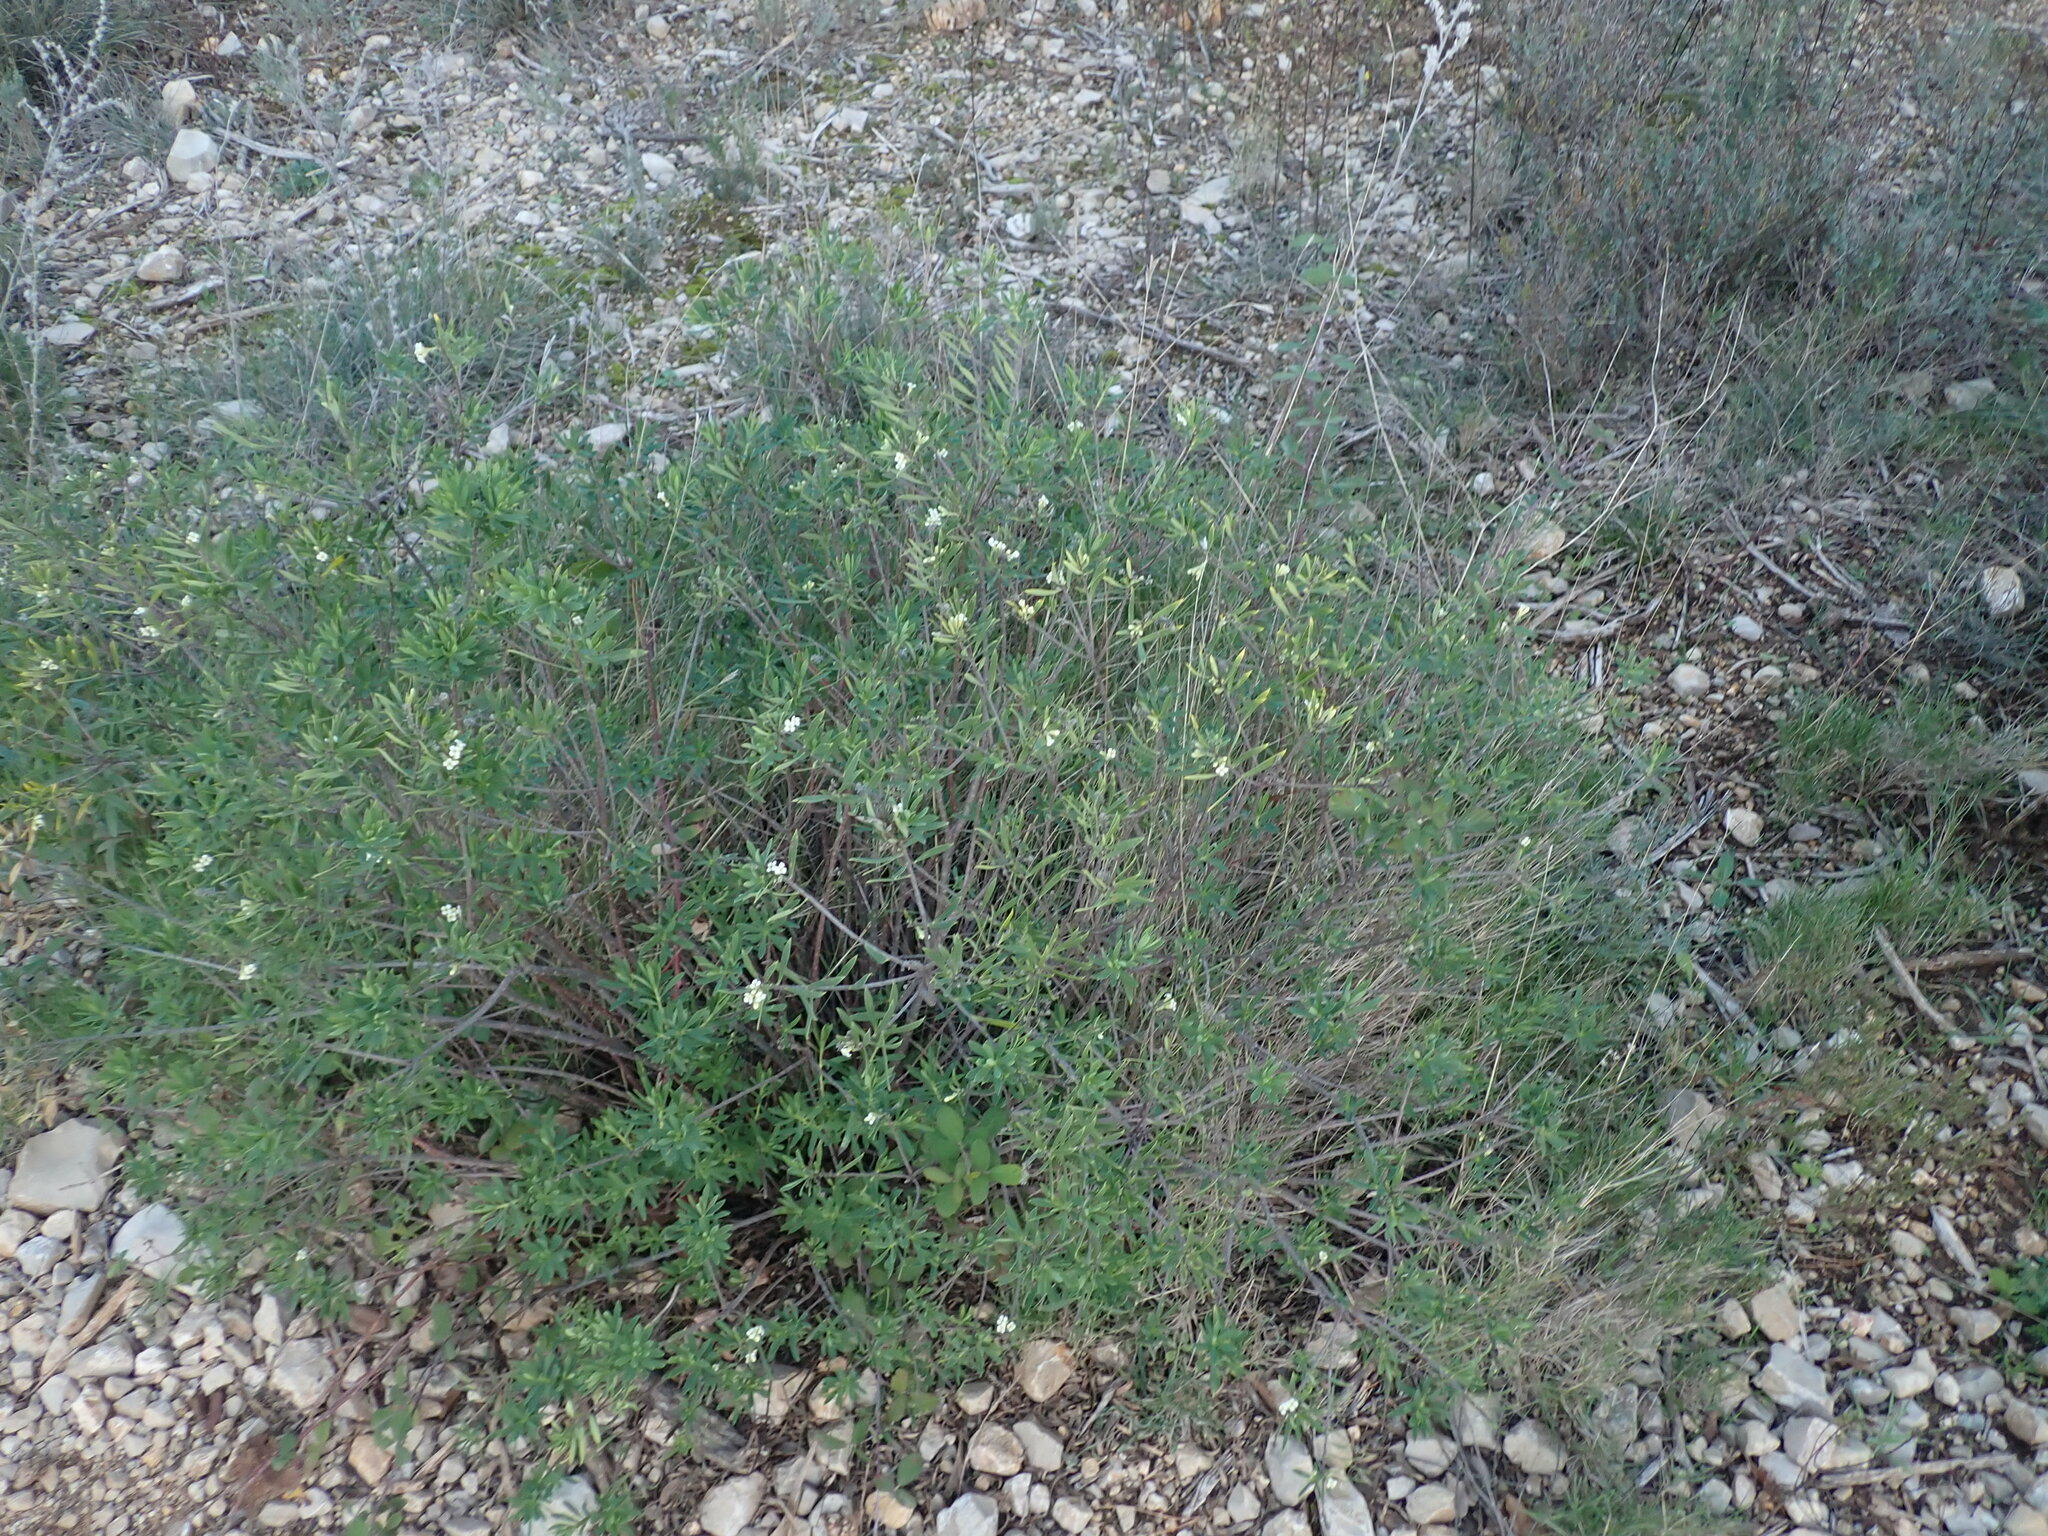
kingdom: Plantae
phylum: Tracheophyta
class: Magnoliopsida
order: Malvales
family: Thymelaeaceae
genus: Daphne
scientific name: Daphne gnidium
